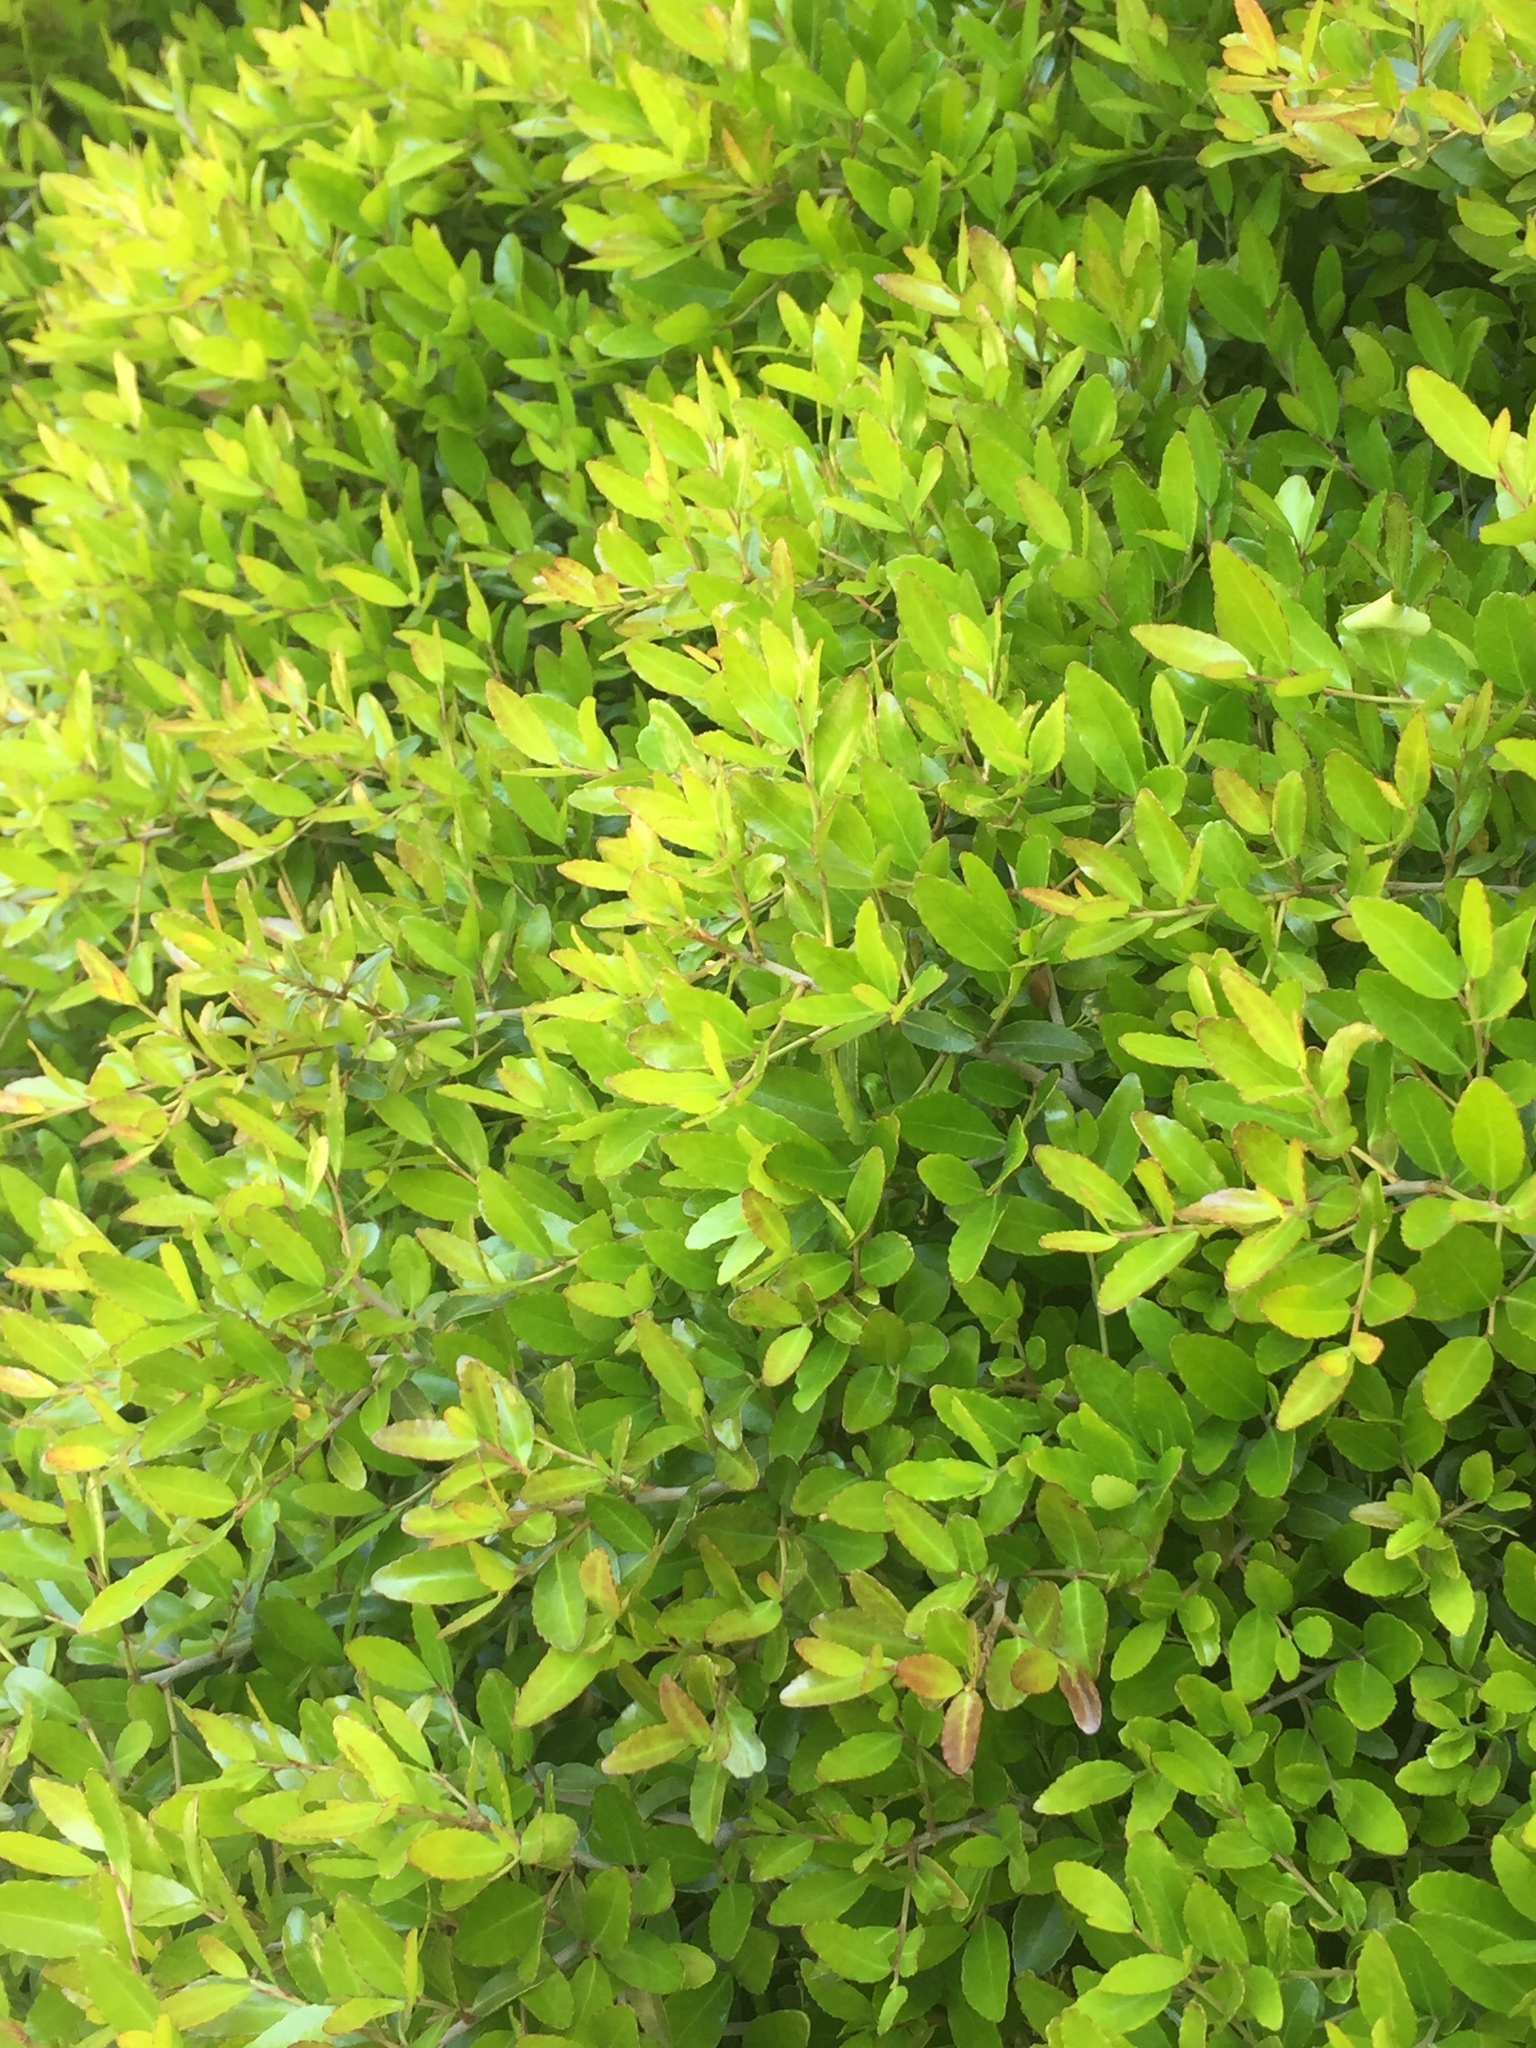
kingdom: Plantae
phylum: Tracheophyta
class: Magnoliopsida
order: Aquifoliales
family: Aquifoliaceae
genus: Ilex
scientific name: Ilex vomitoria
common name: Yaupon holly
